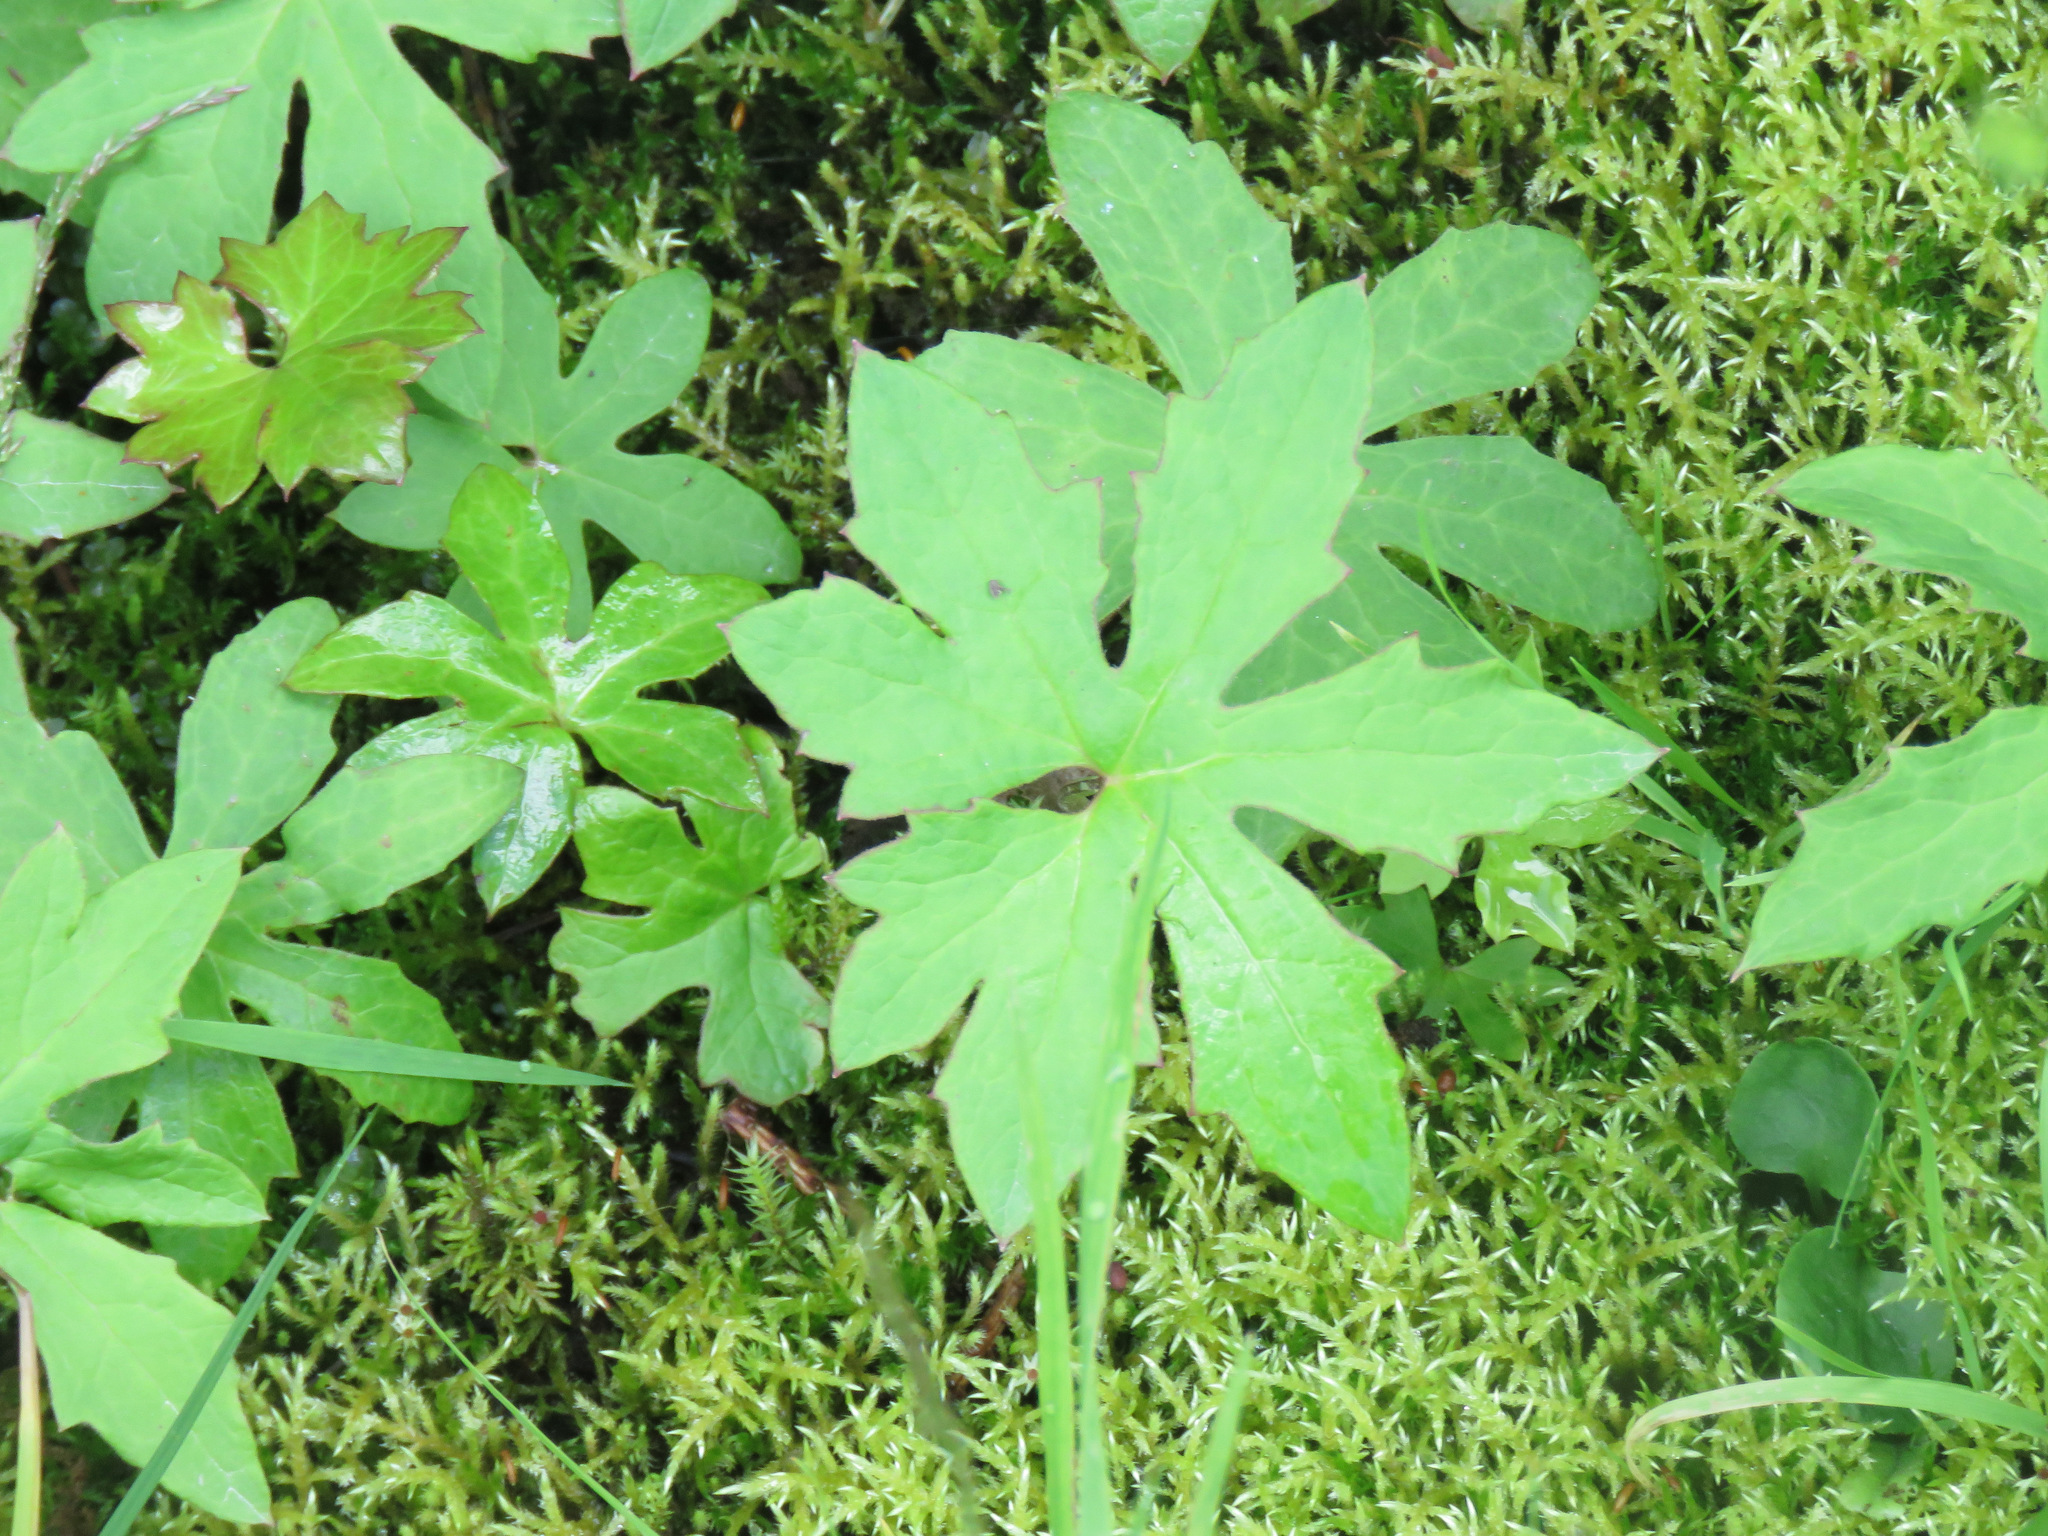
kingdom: Plantae
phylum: Tracheophyta
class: Magnoliopsida
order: Asterales
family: Asteraceae
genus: Petasites
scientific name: Petasites frigidus
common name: Arctic butterbur
